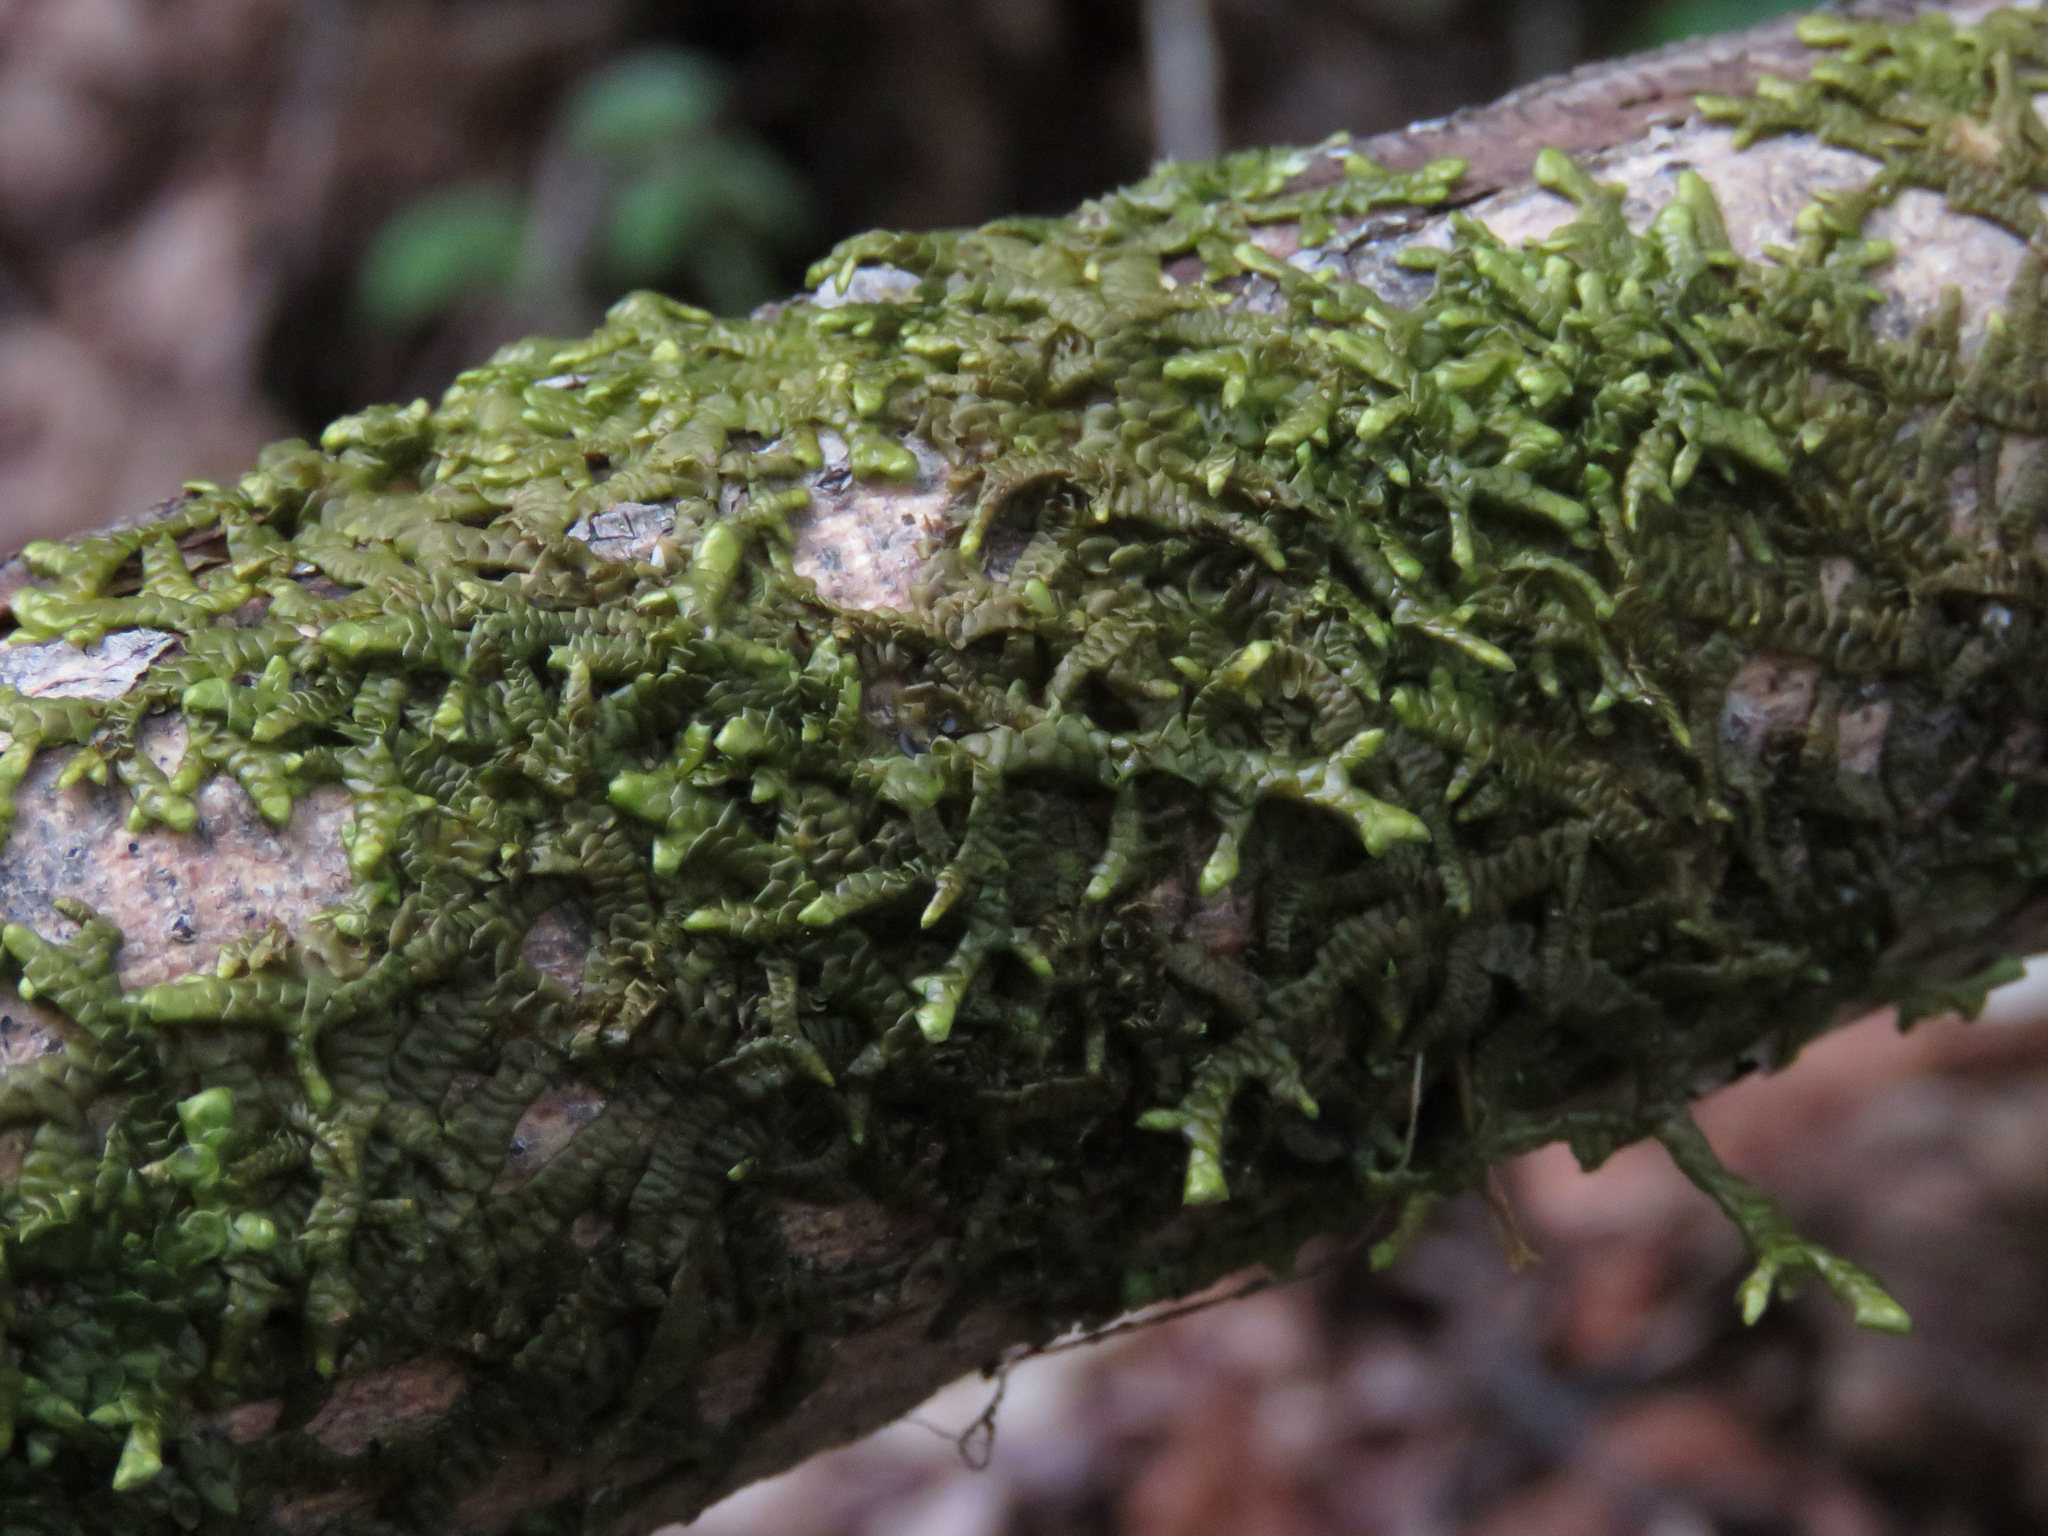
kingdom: Plantae
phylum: Marchantiophyta
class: Jungermanniopsida
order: Porellales
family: Porellaceae
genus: Porella
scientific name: Porella navicularis
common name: Tree ruffle liverwort
